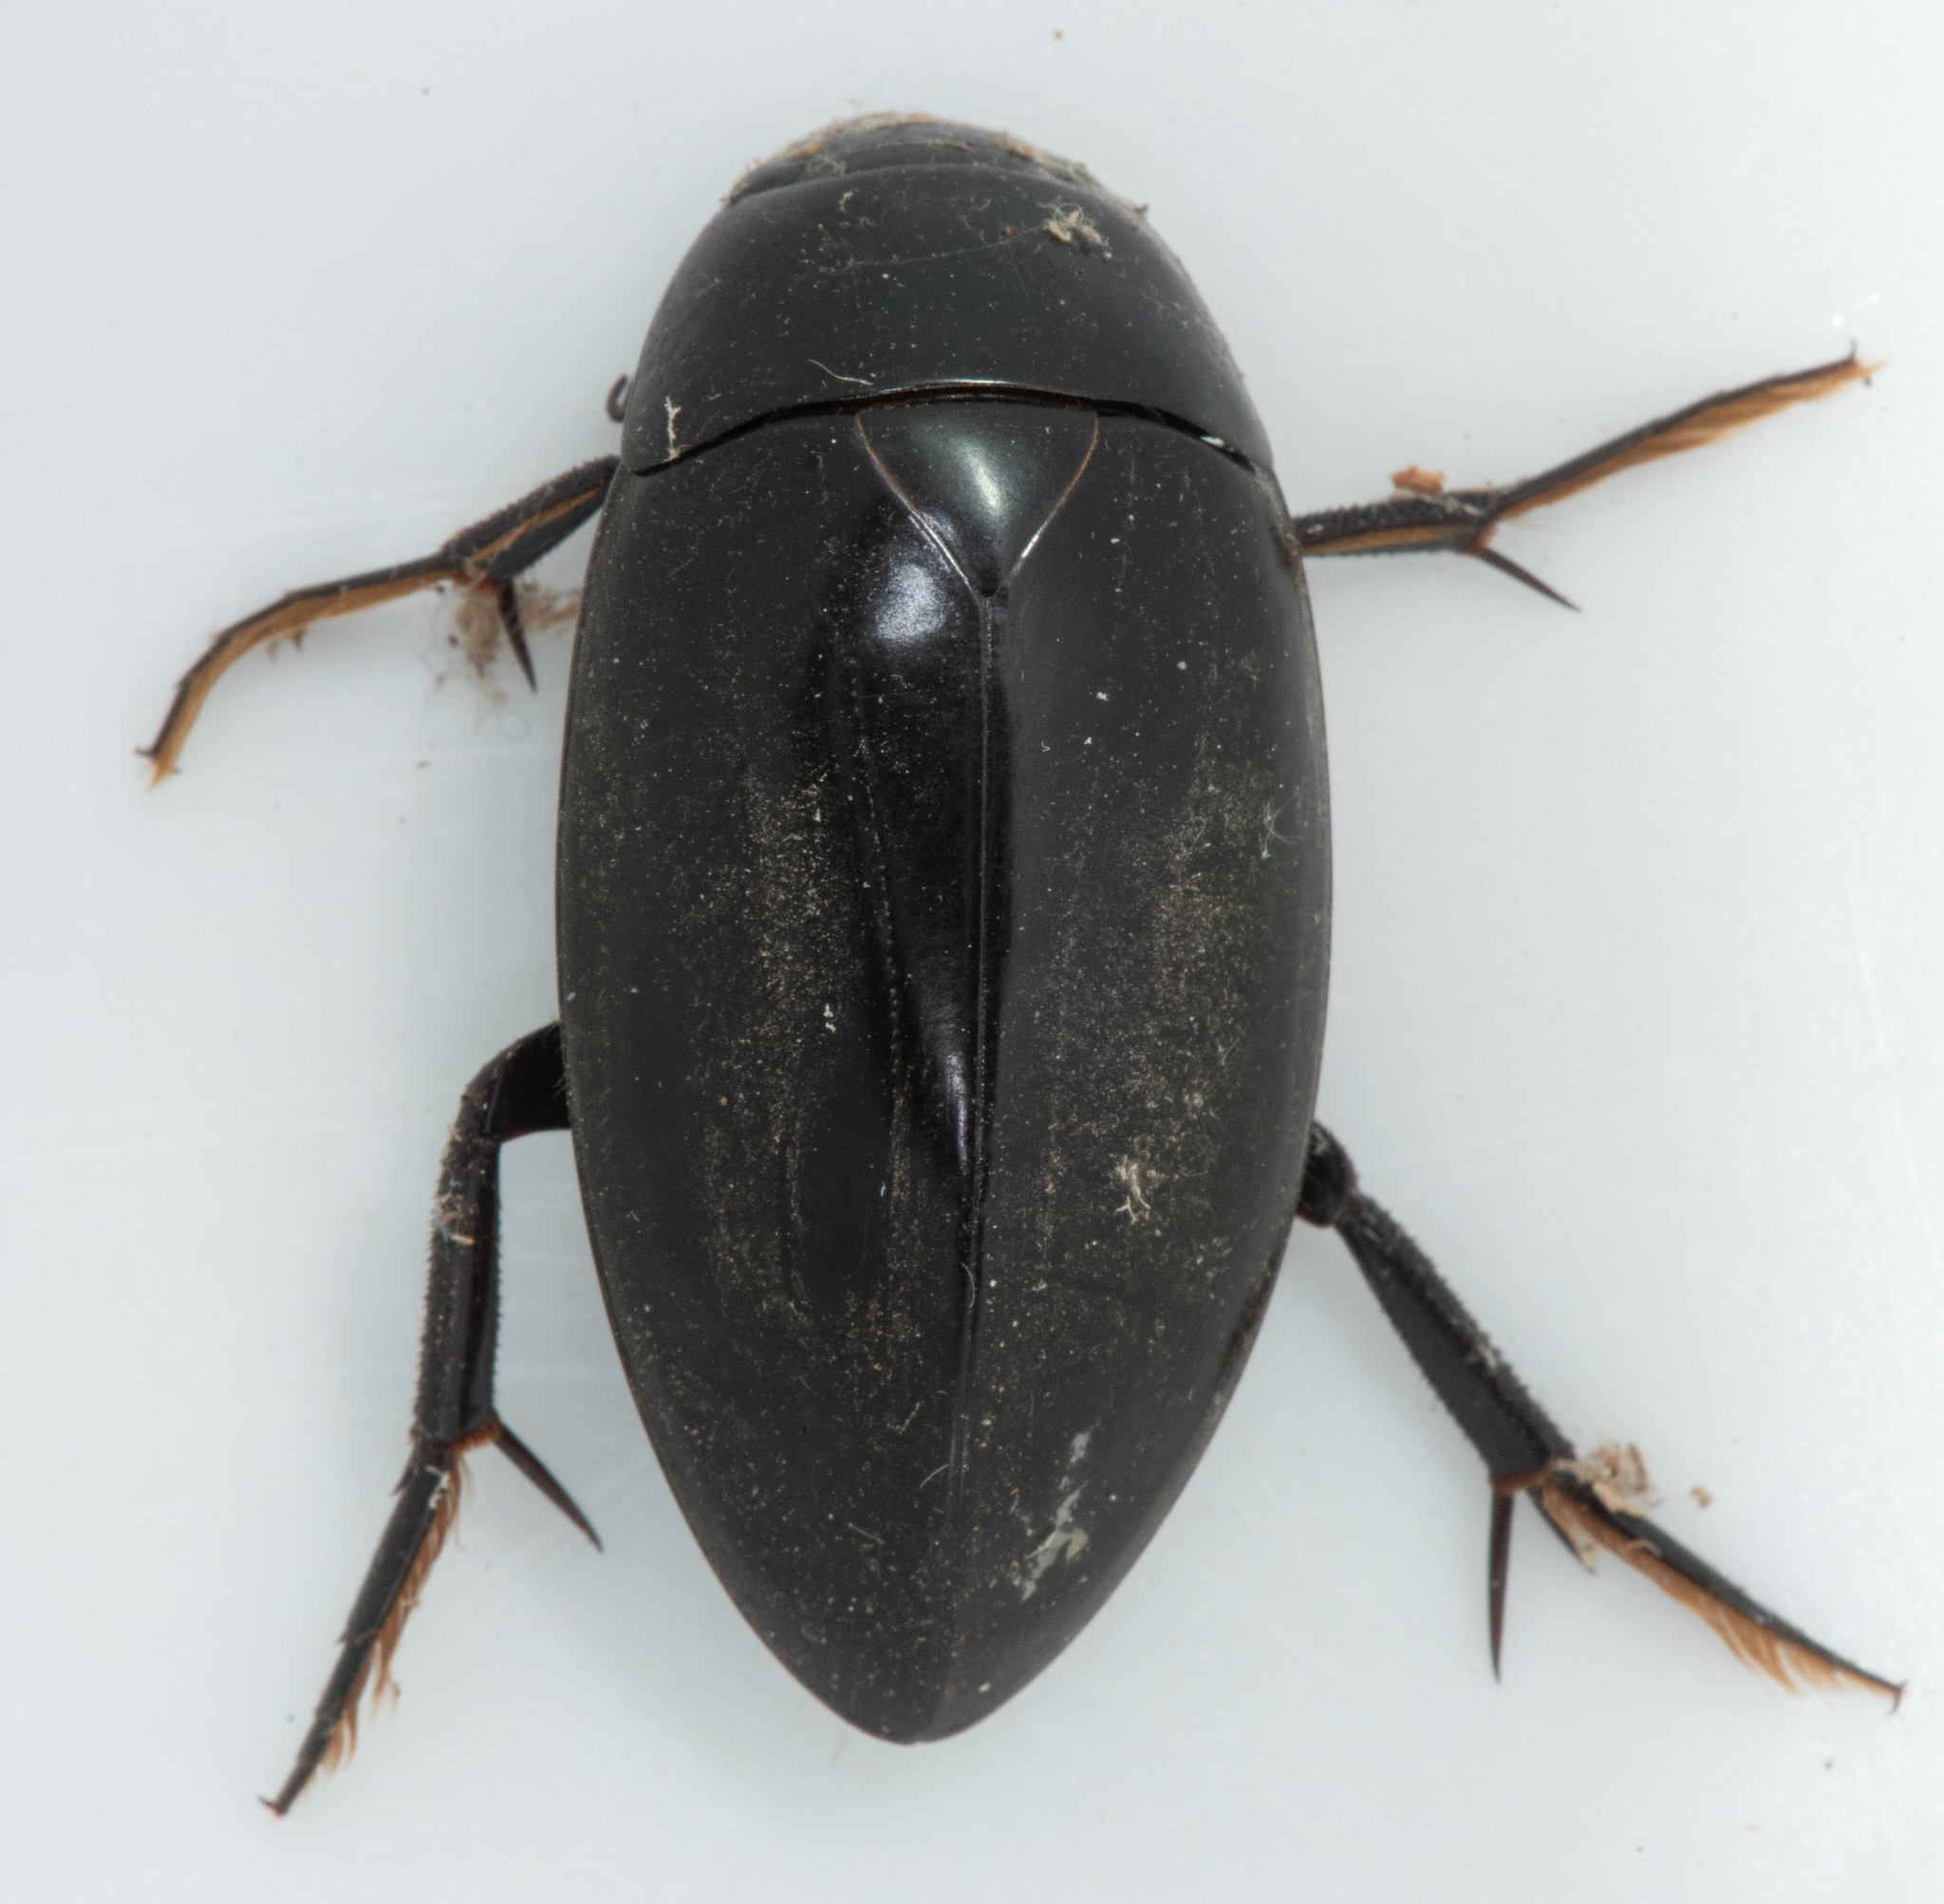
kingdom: Animalia
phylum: Arthropoda
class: Insecta
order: Coleoptera
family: Hydrophilidae
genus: Hydrophilus
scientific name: Hydrophilus triangularis
